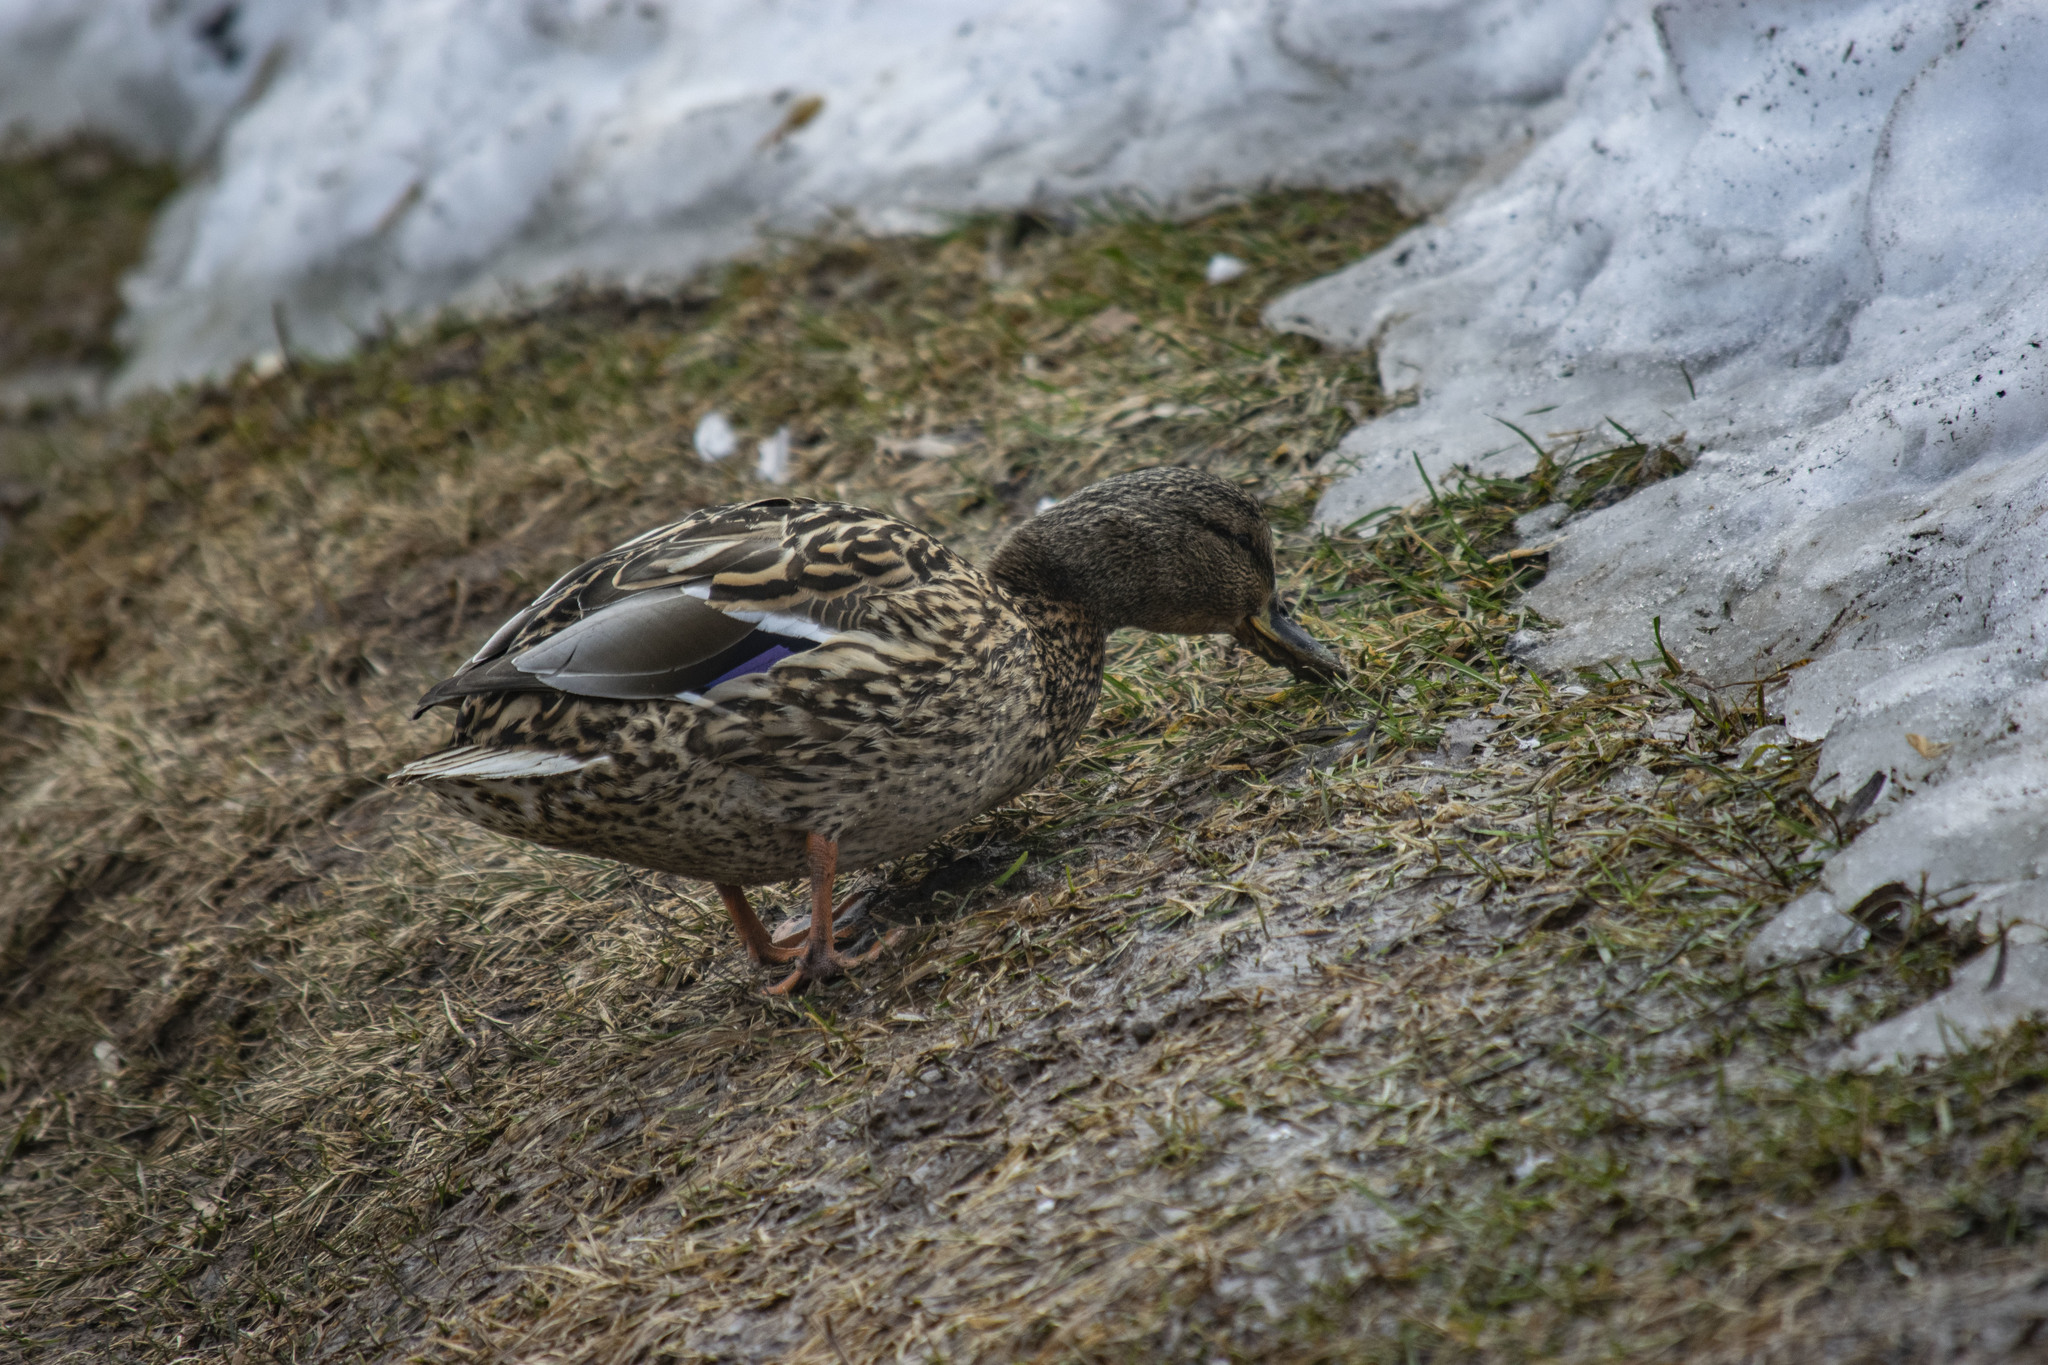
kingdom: Animalia
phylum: Chordata
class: Aves
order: Anseriformes
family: Anatidae
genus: Anas
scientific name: Anas platyrhynchos
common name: Mallard
